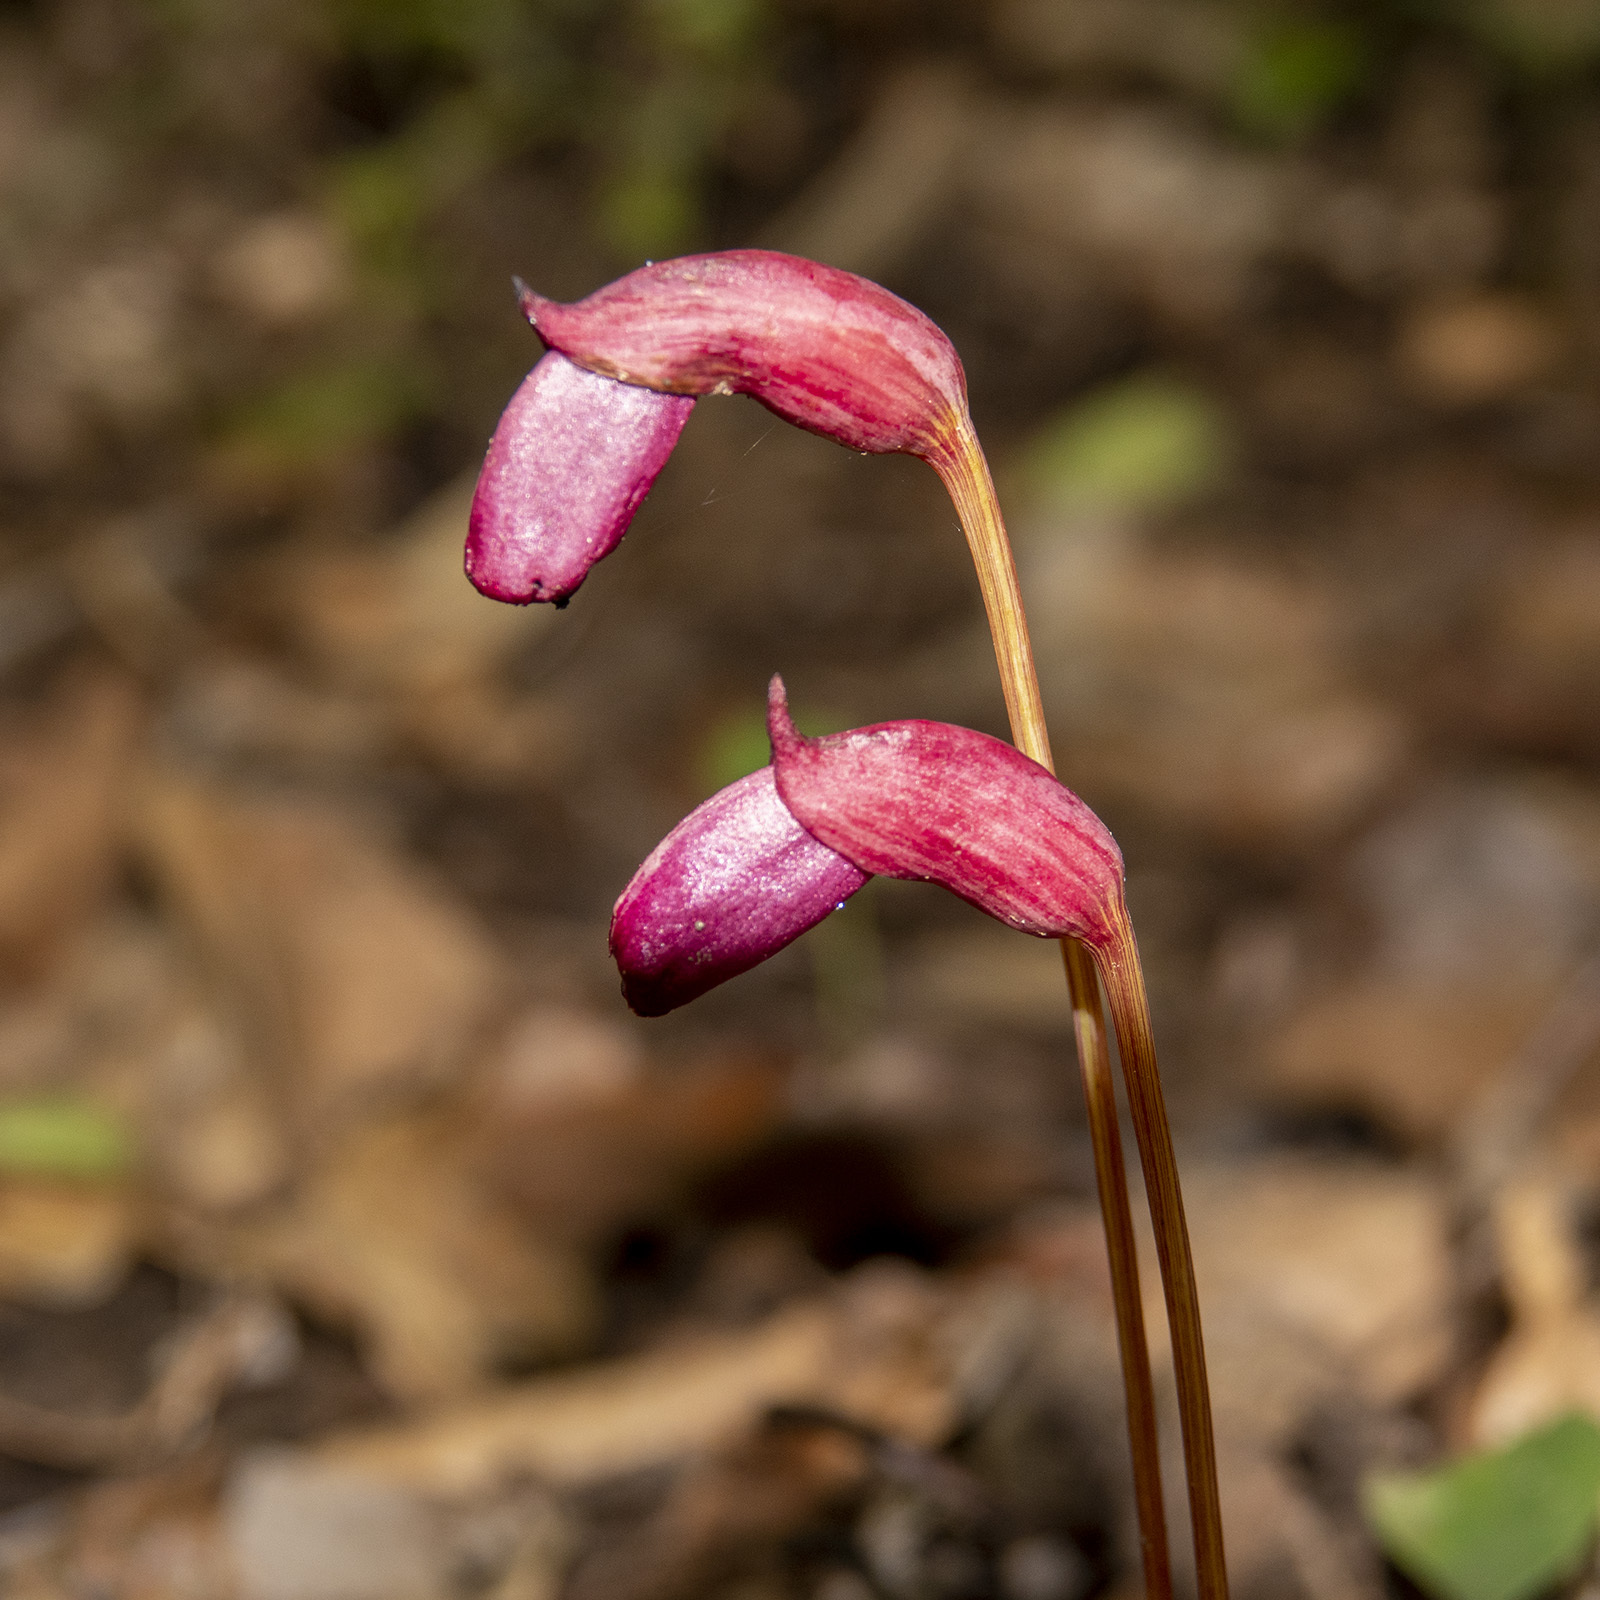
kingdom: Plantae
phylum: Tracheophyta
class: Magnoliopsida
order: Lamiales
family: Orobanchaceae
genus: Aeginetia
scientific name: Aeginetia indica
